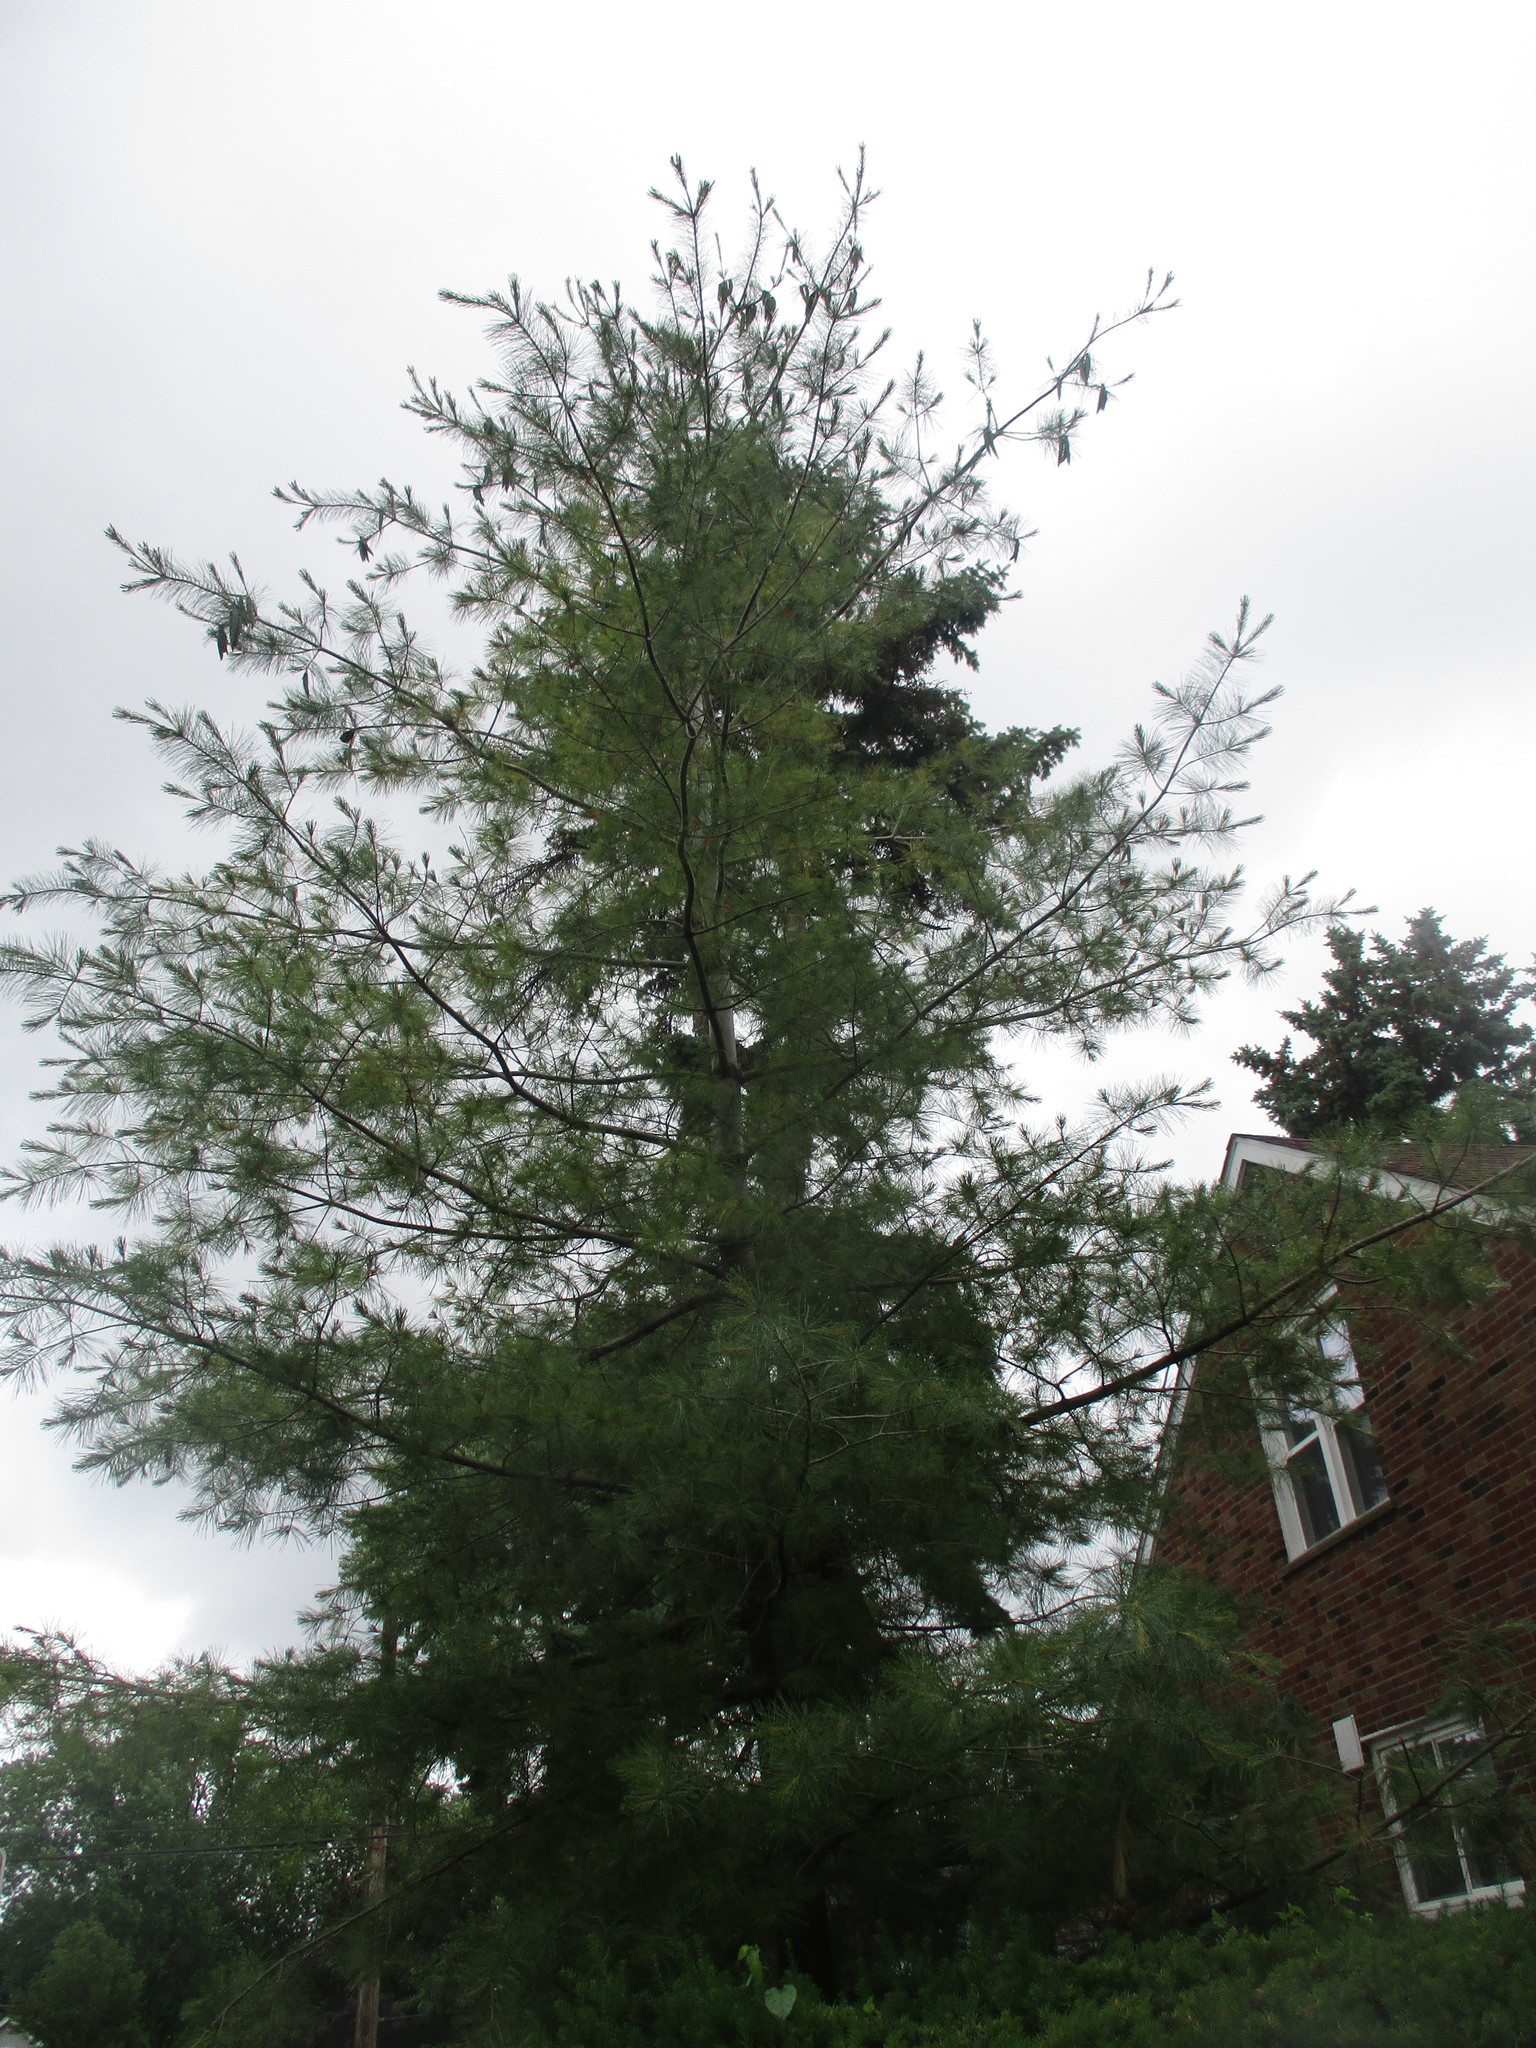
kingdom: Plantae
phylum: Tracheophyta
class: Pinopsida
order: Pinales
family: Pinaceae
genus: Pinus
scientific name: Pinus strobus
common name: Weymouth pine
